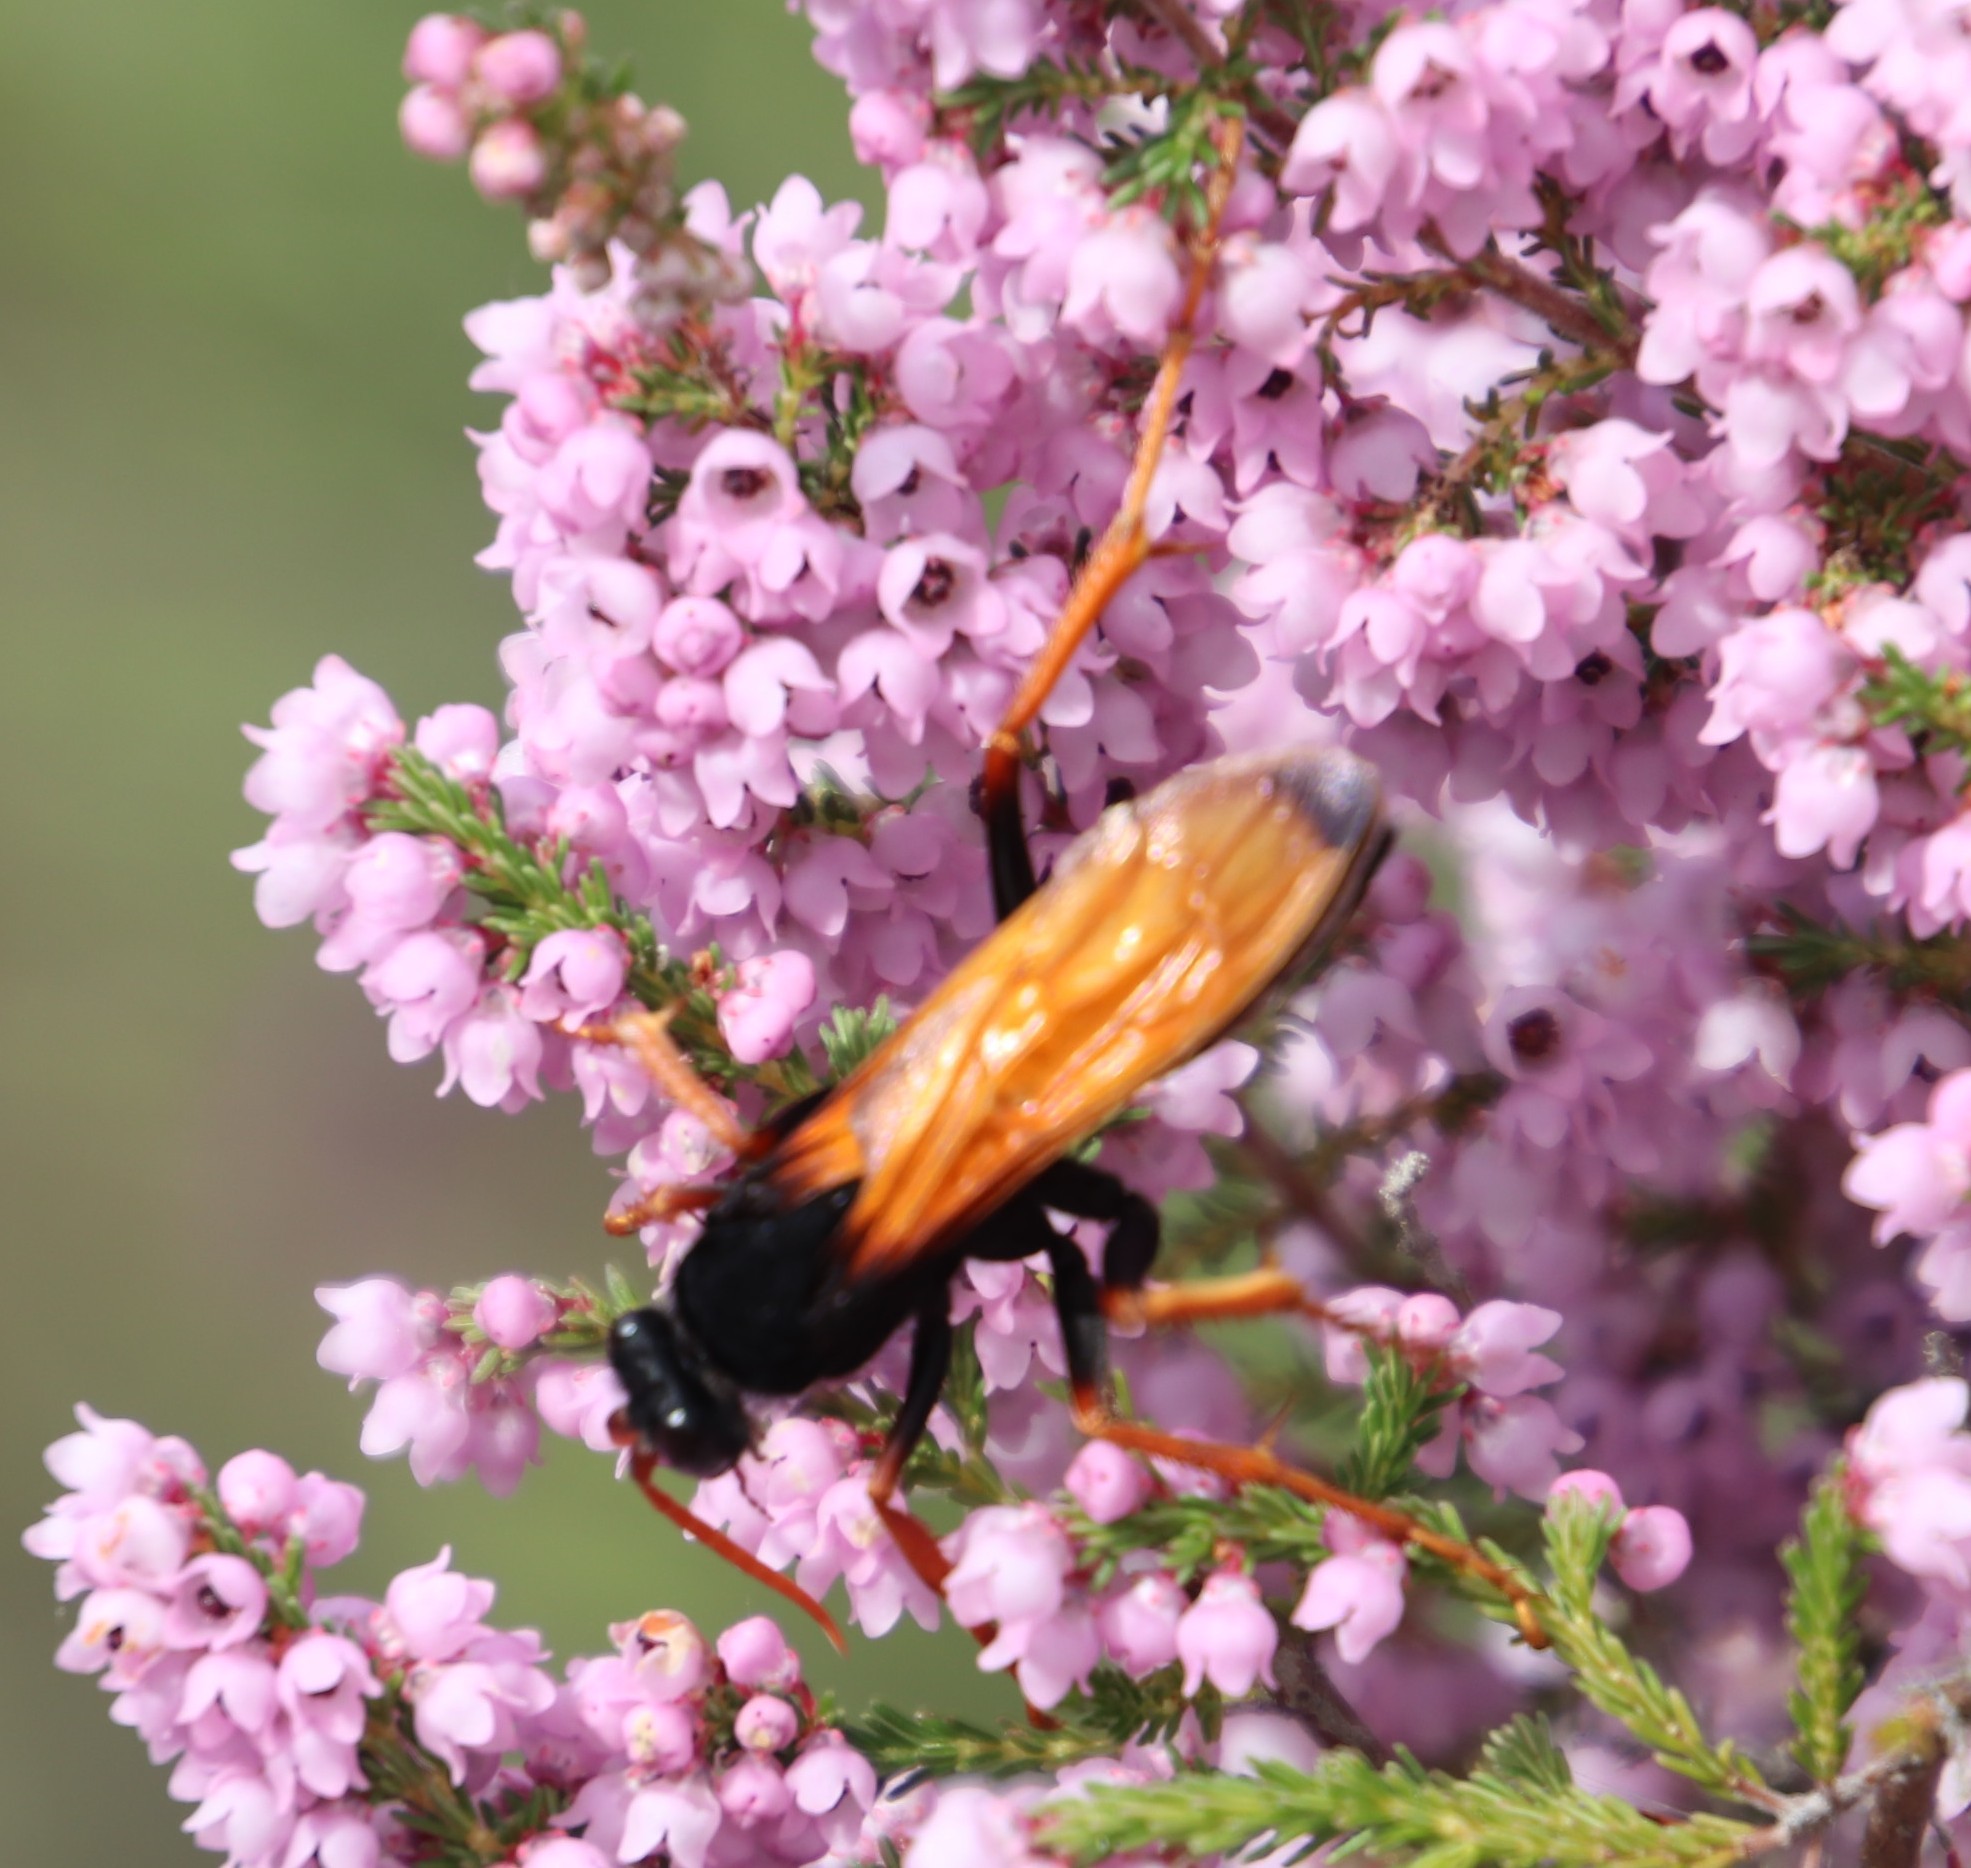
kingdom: Plantae
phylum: Tracheophyta
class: Magnoliopsida
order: Ericales
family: Ericaceae
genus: Erica
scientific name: Erica mauritanica
